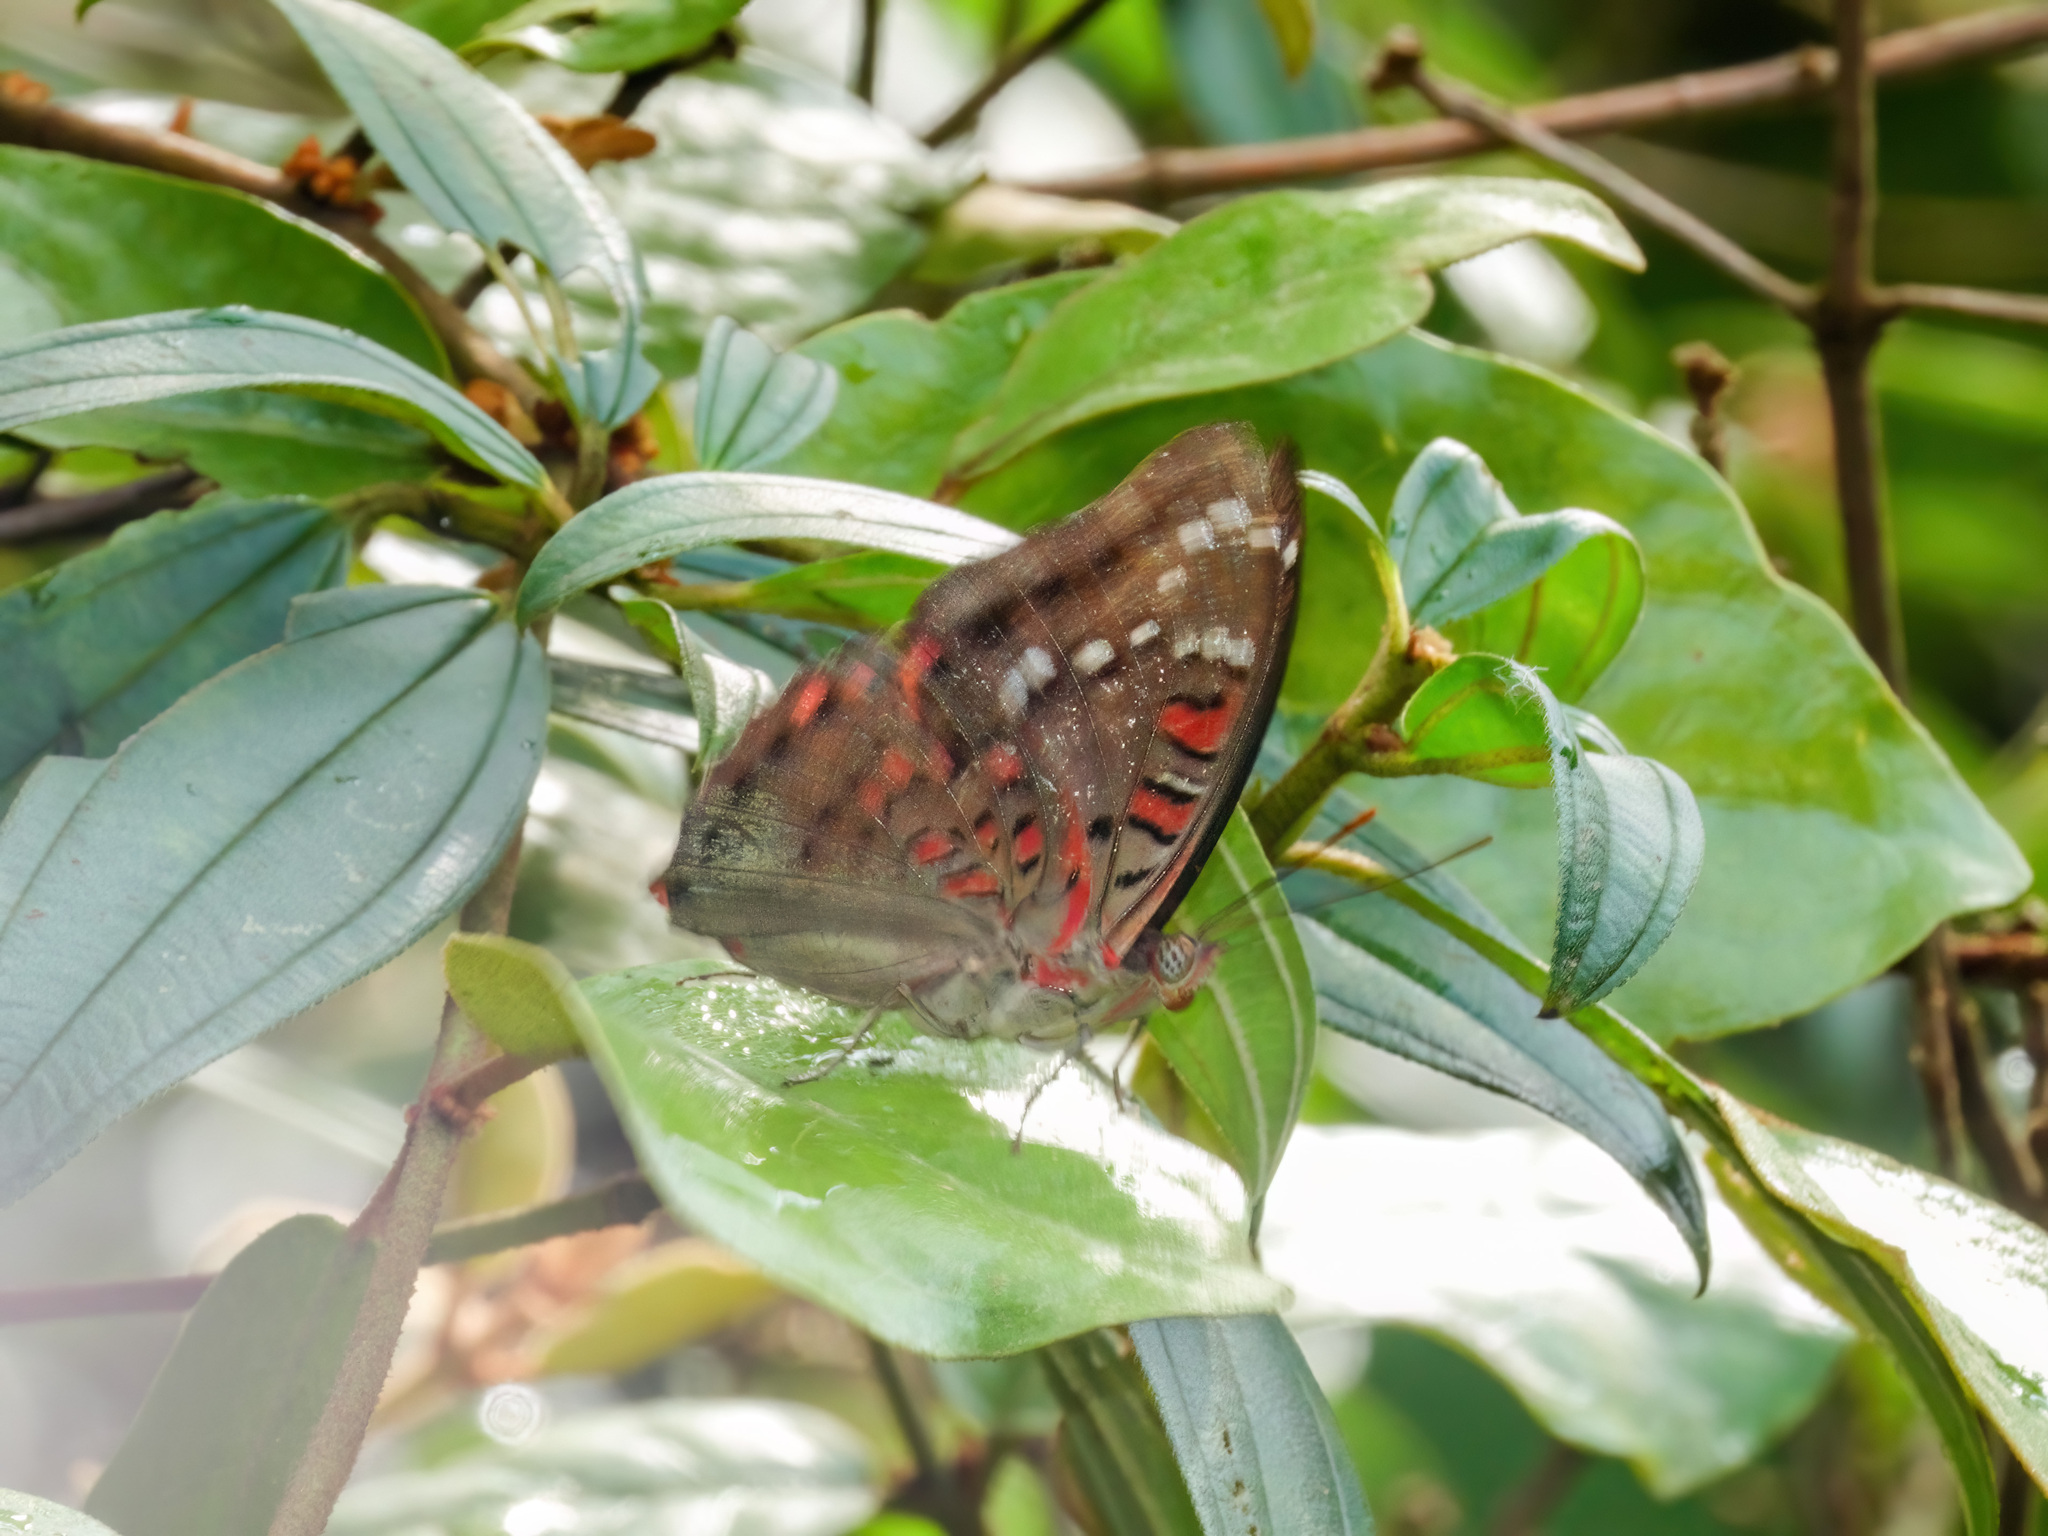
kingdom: Animalia
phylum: Arthropoda
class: Insecta
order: Lepidoptera
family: Nymphalidae
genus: Euthalia
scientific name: Euthalia adonia
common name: Green baron
